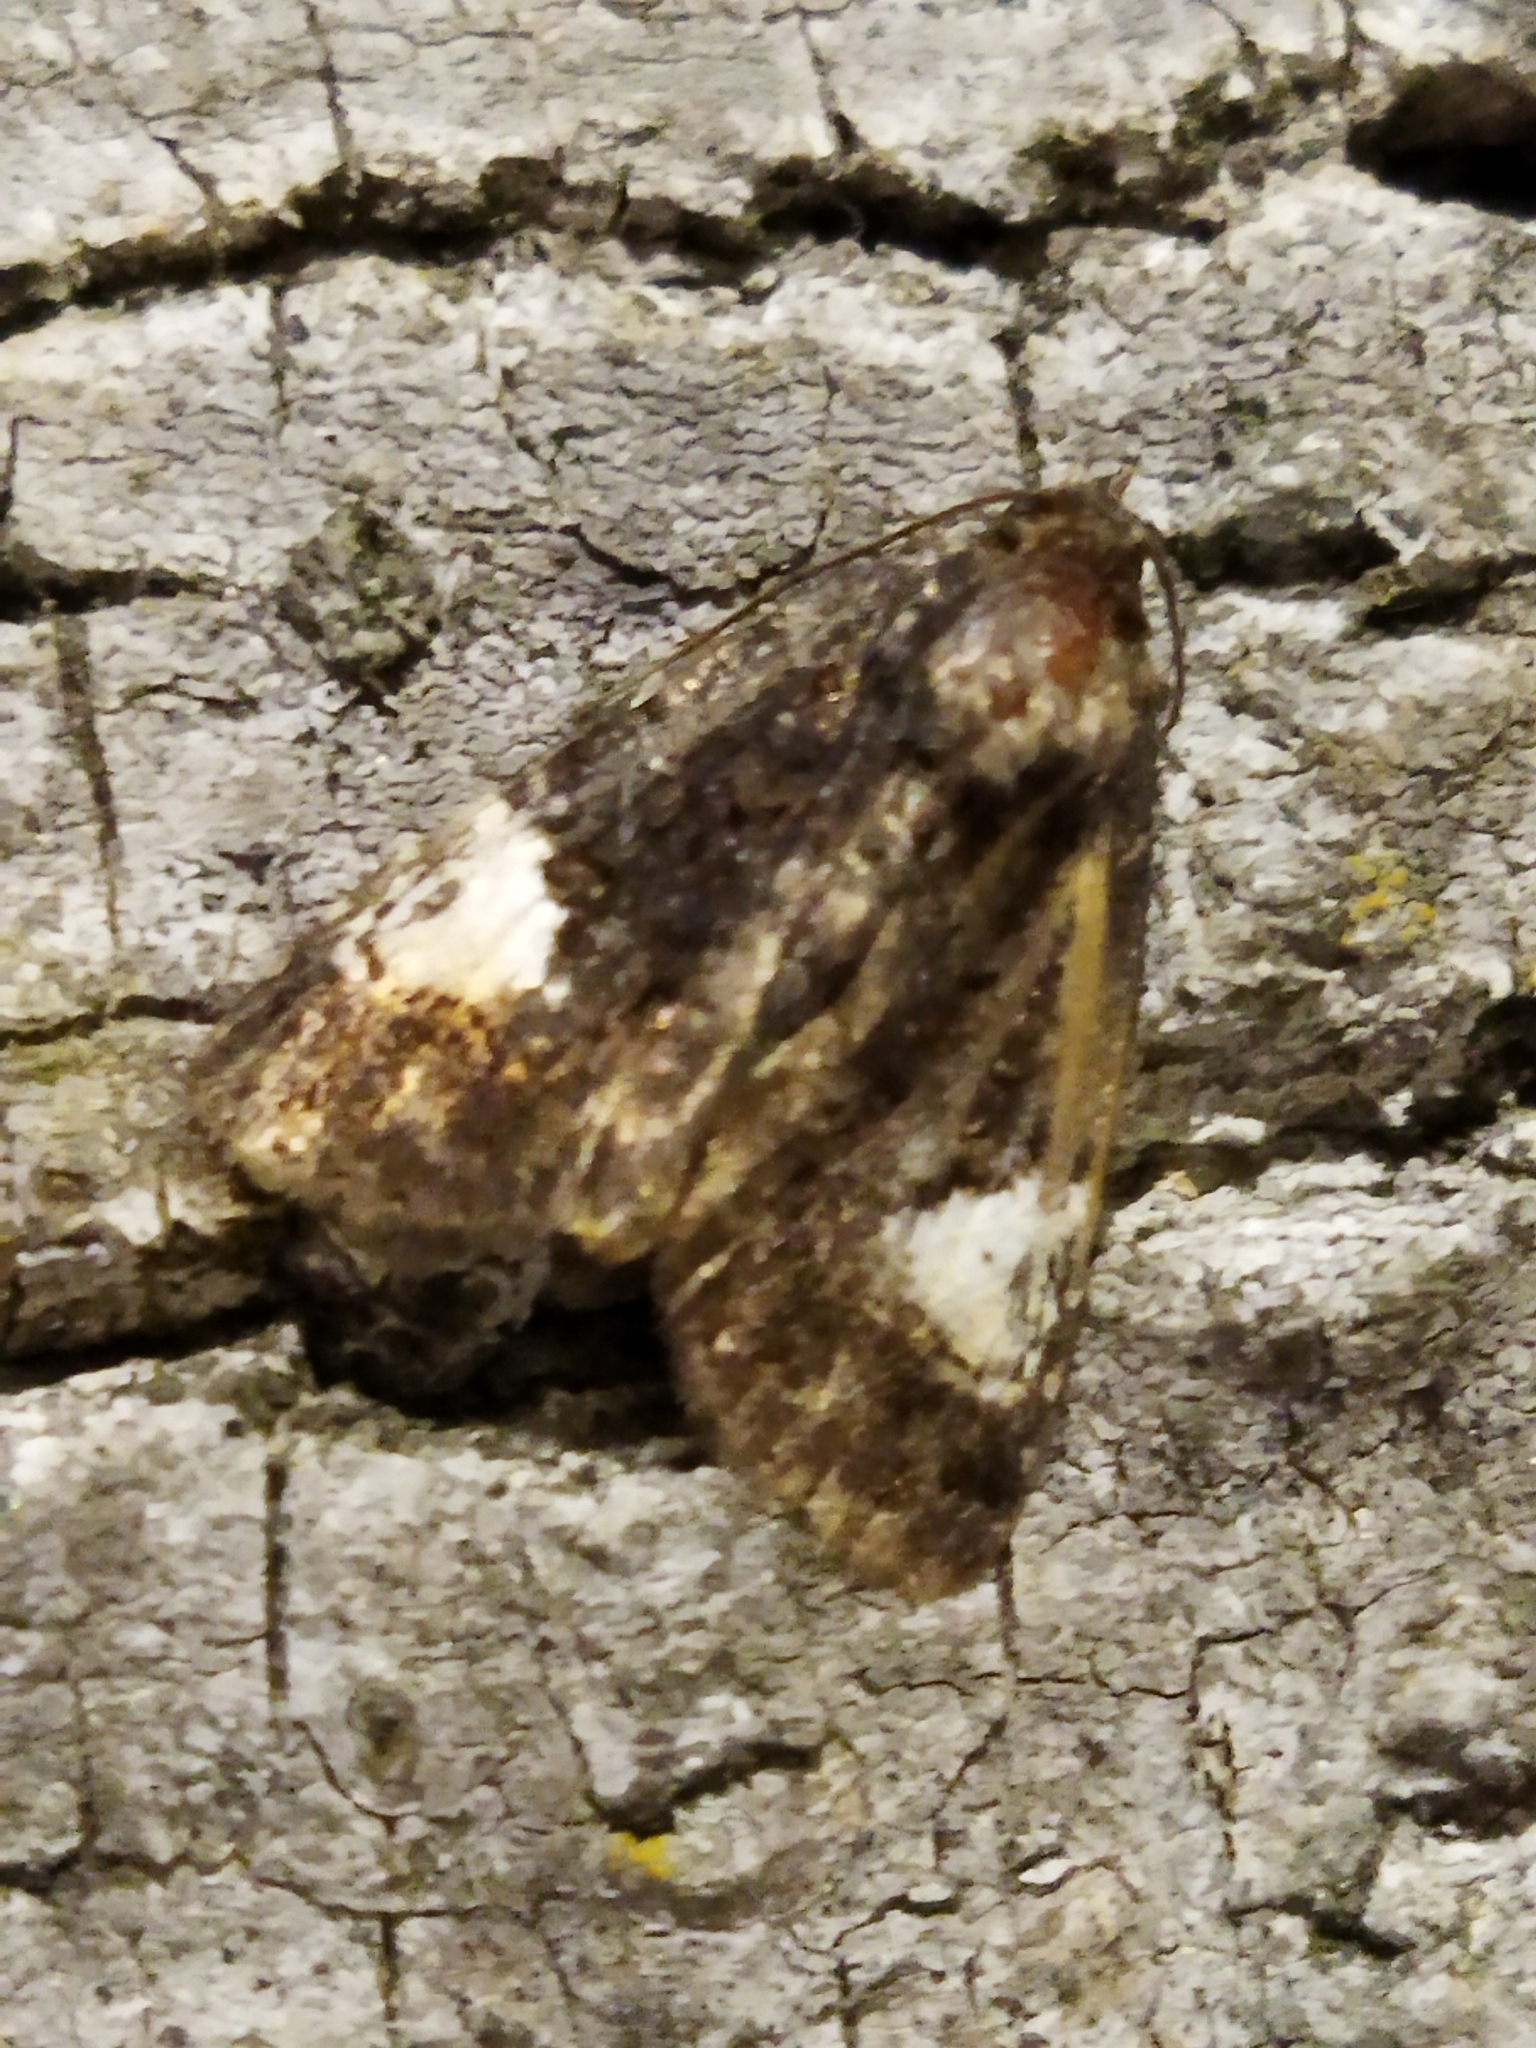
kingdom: Animalia
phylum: Arthropoda
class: Insecta
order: Lepidoptera
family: Noctuidae
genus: Aedia
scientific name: Aedia funesta
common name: The druid
